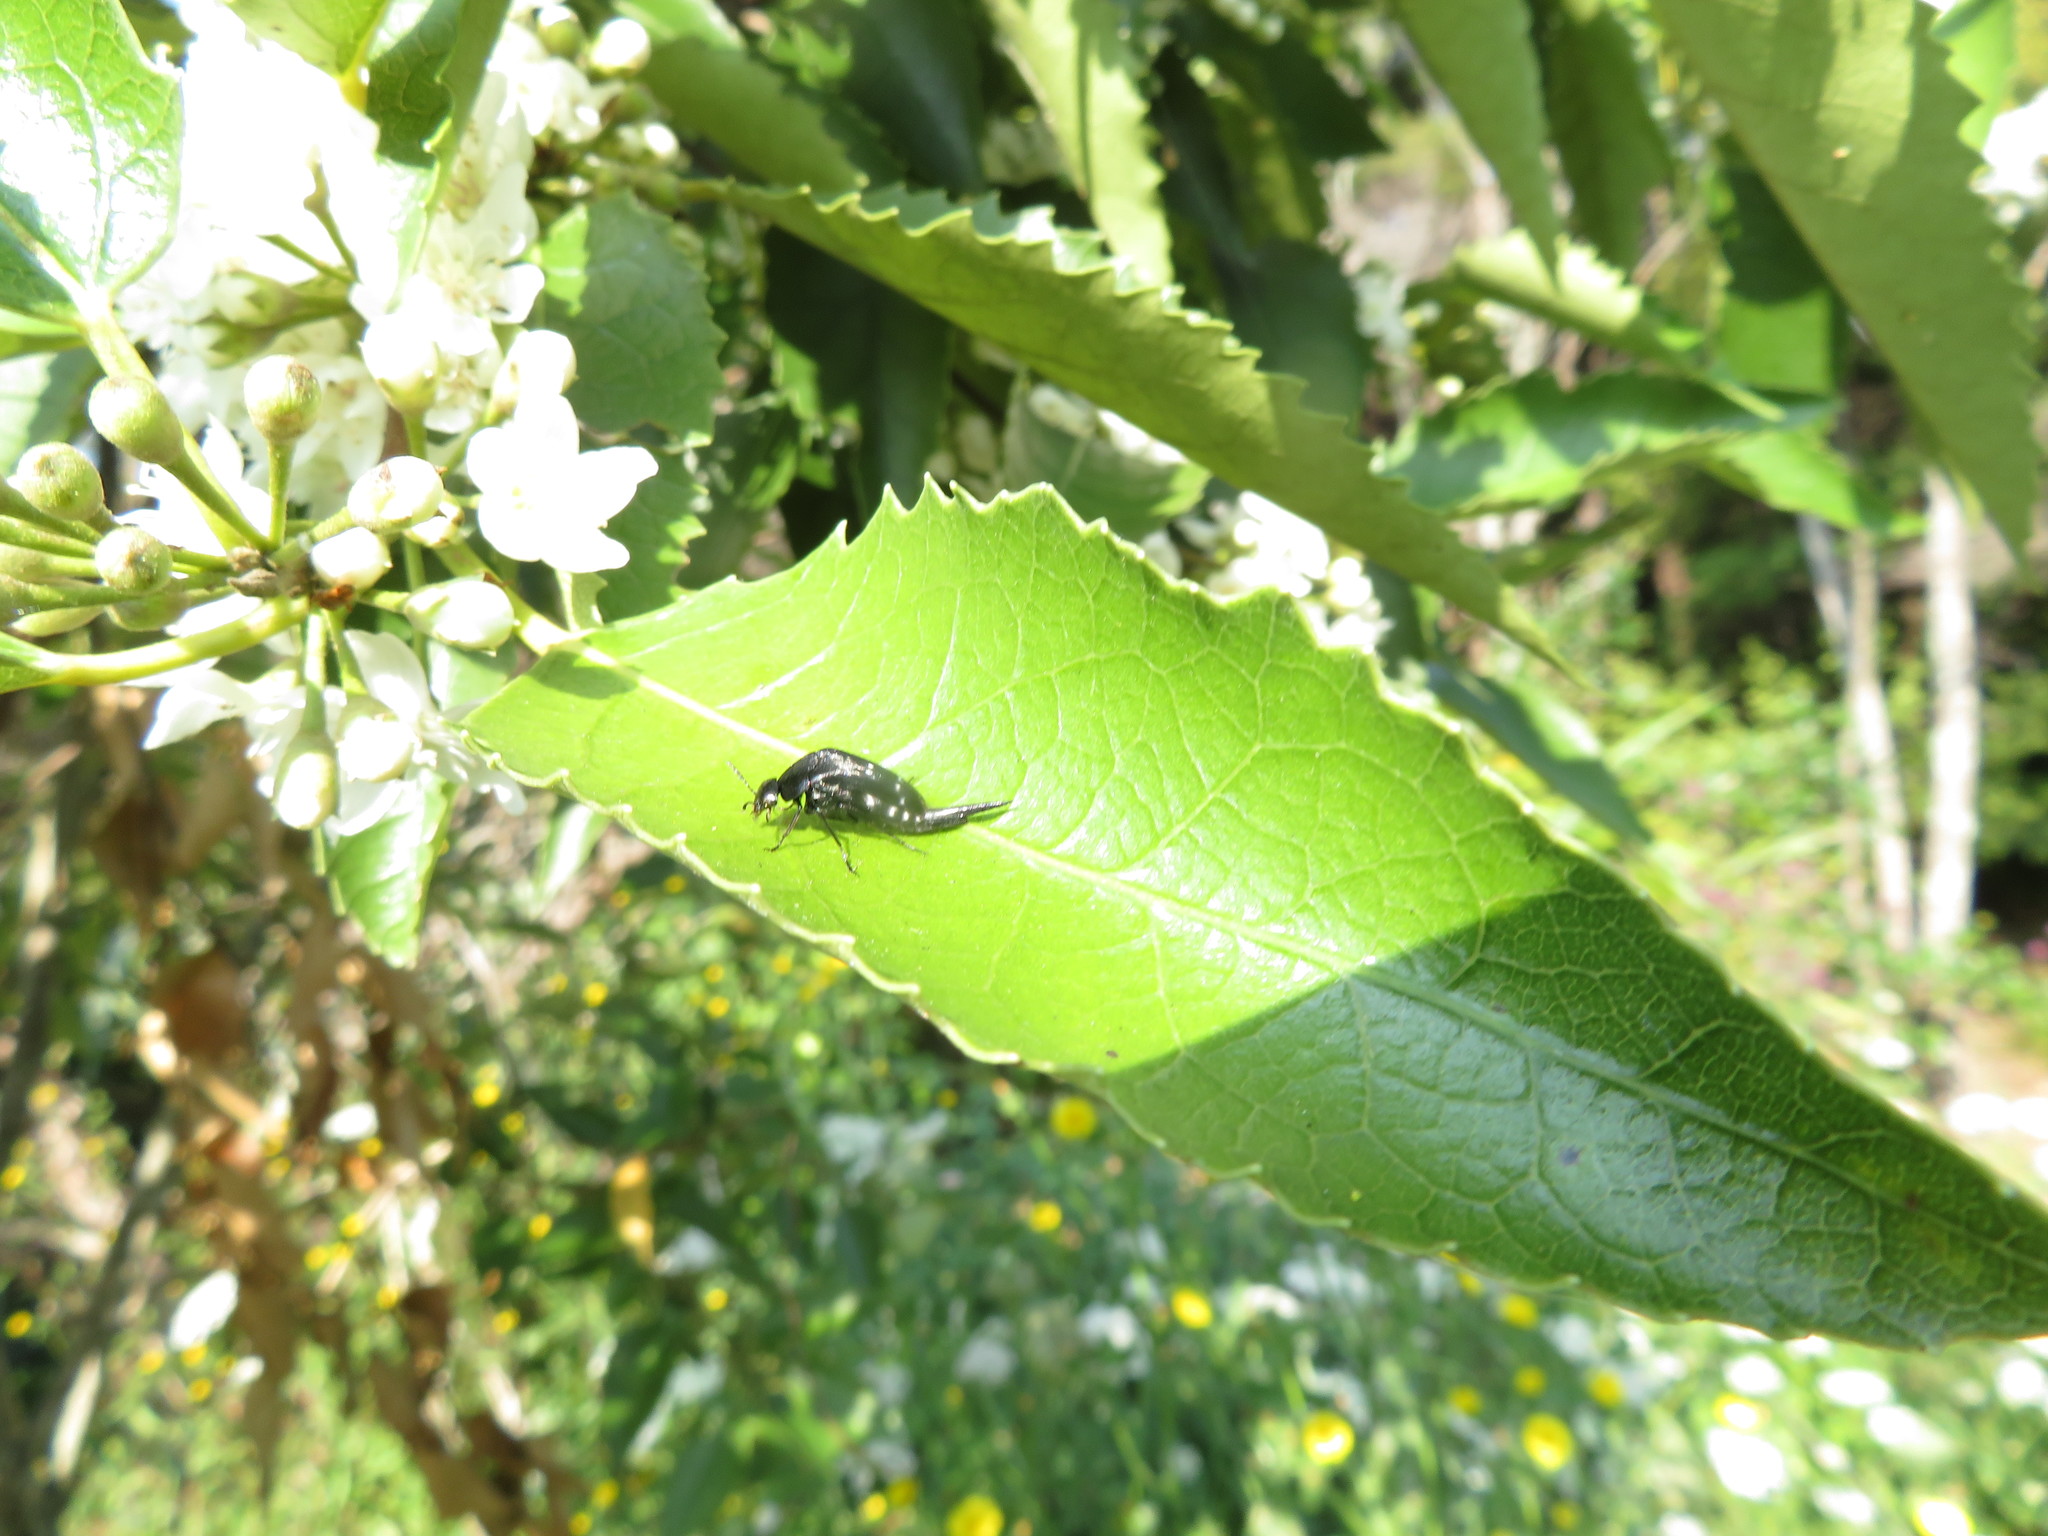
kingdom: Animalia
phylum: Arthropoda
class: Insecta
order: Coleoptera
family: Mordellidae
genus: Hoshihananomia
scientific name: Hoshihananomia
